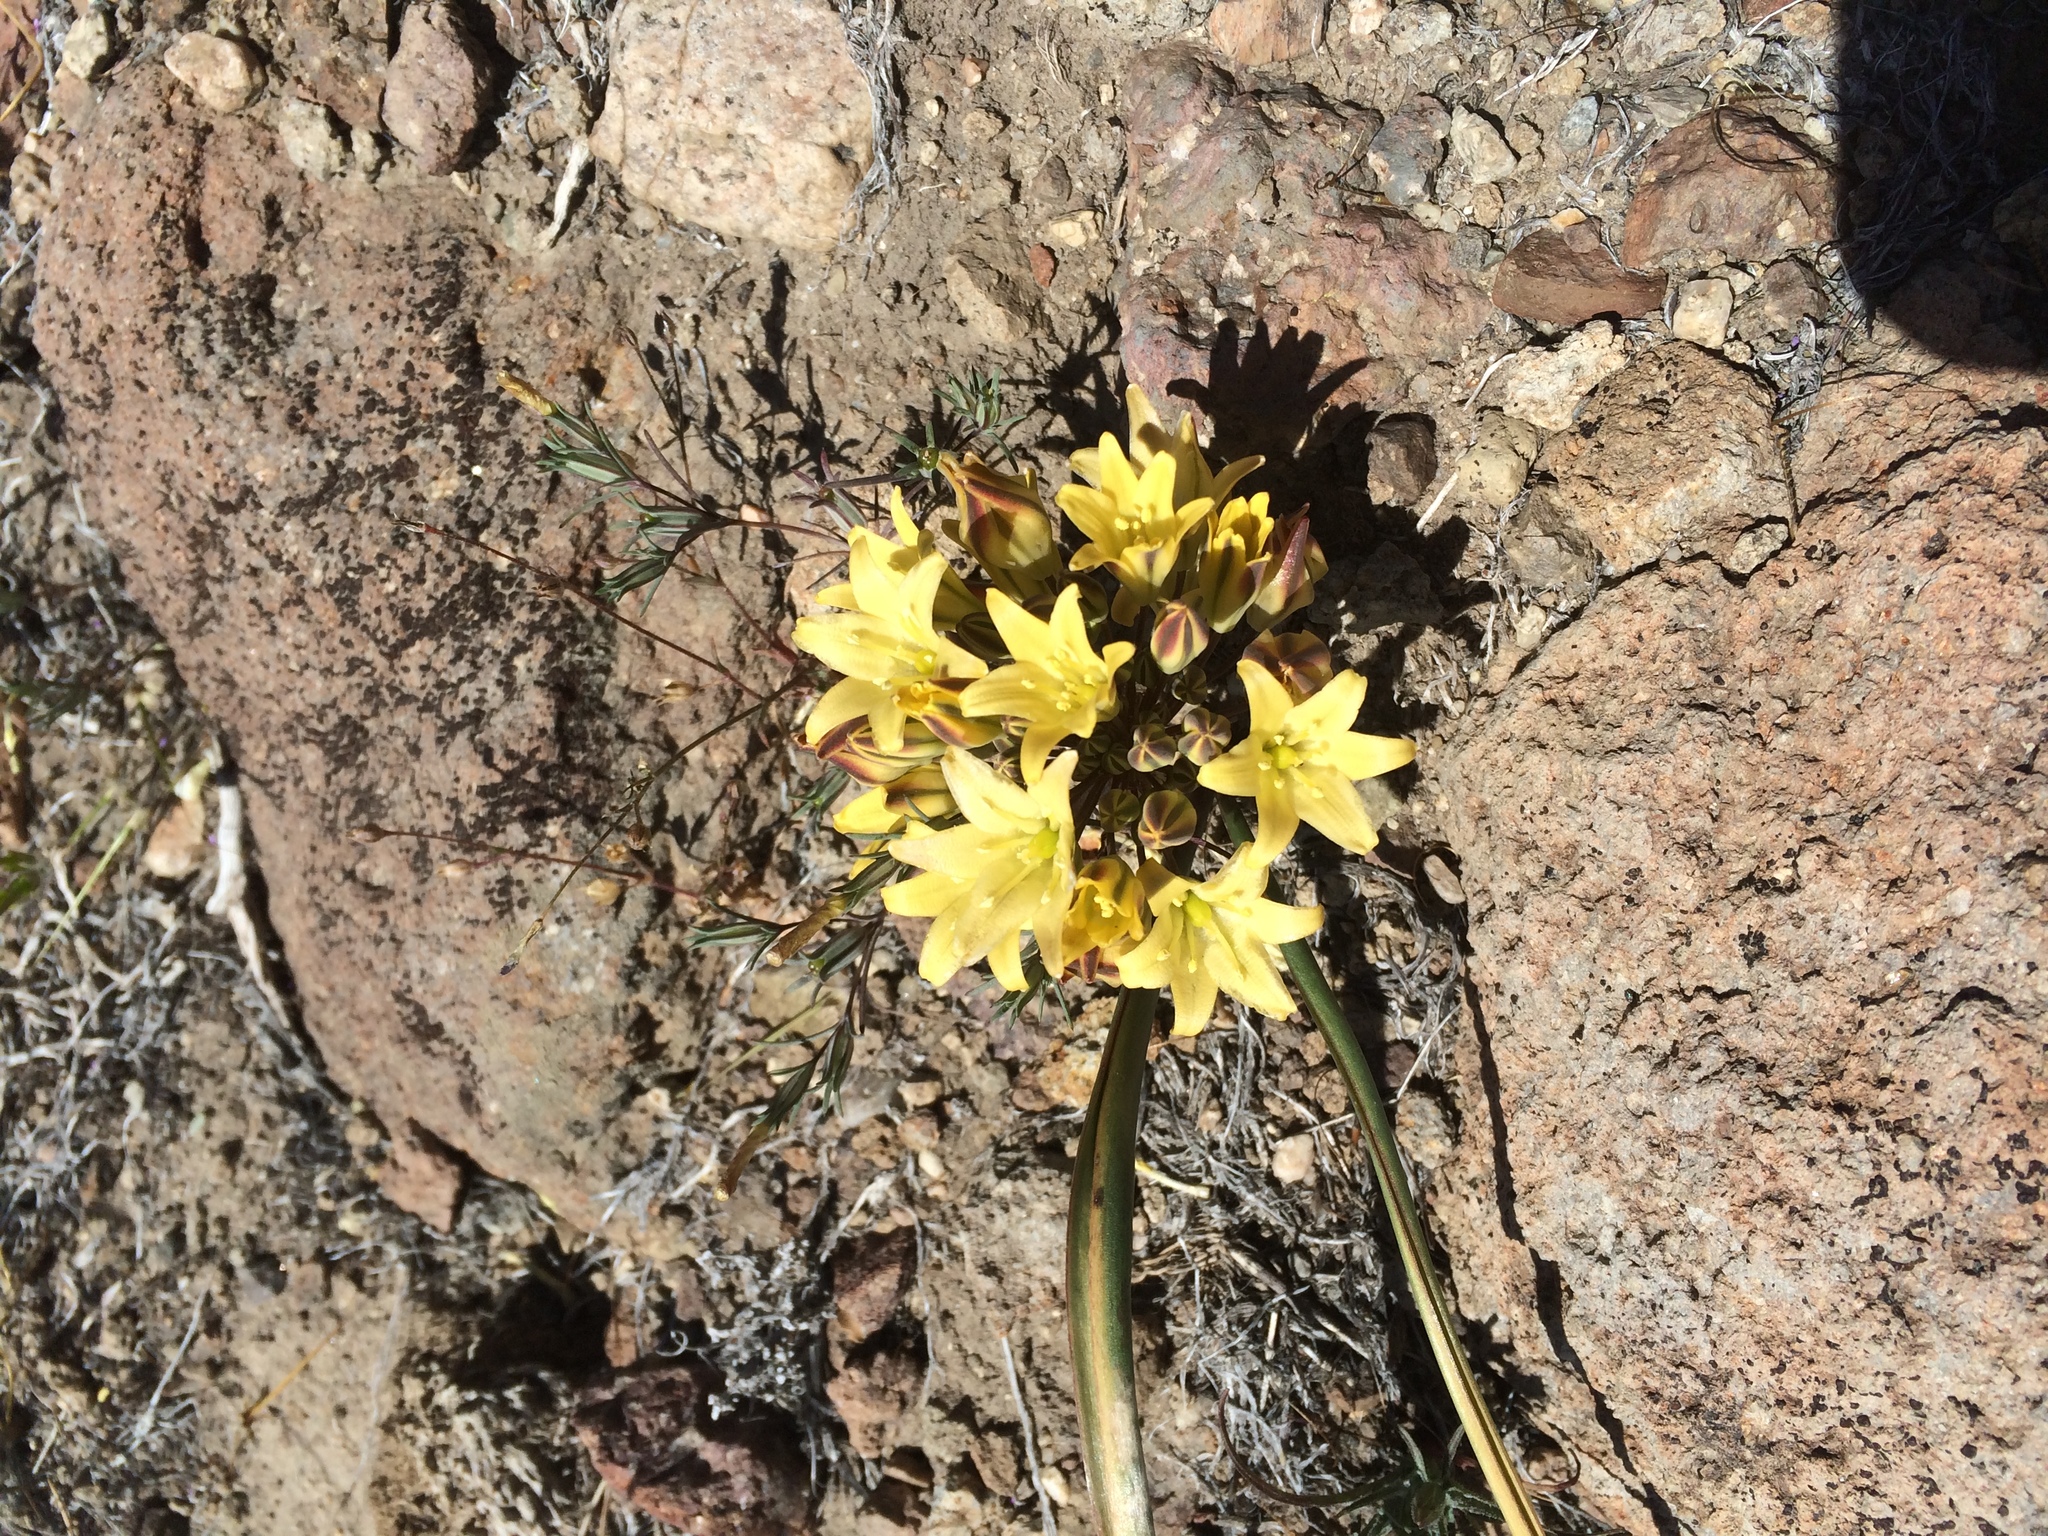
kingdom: Plantae
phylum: Tracheophyta
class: Liliopsida
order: Asparagales
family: Asparagaceae
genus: Triteleia
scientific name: Triteleia piutensis
